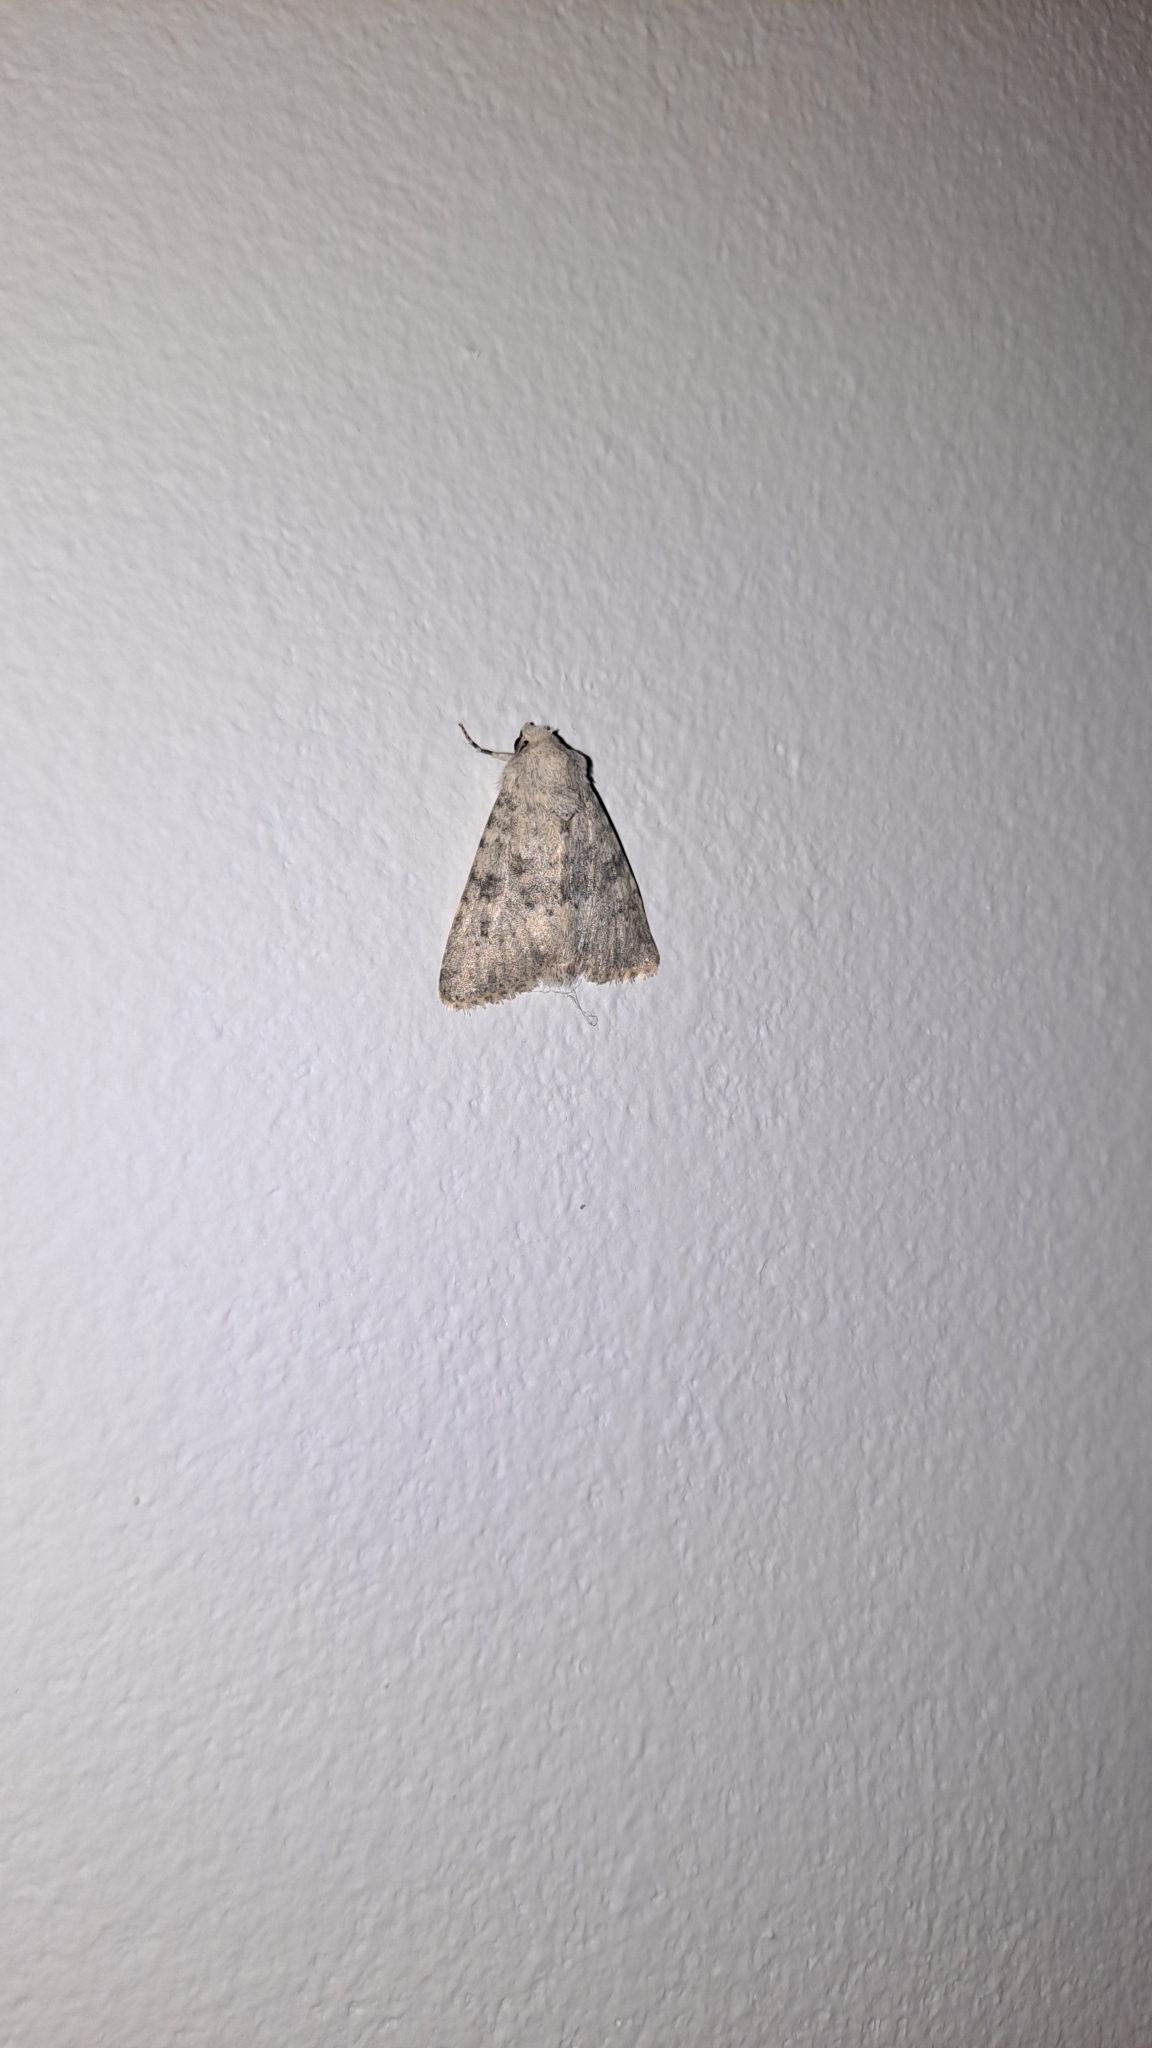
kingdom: Animalia
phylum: Arthropoda
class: Insecta
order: Lepidoptera
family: Noctuidae
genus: Polymixis
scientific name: Polymixis dubia
